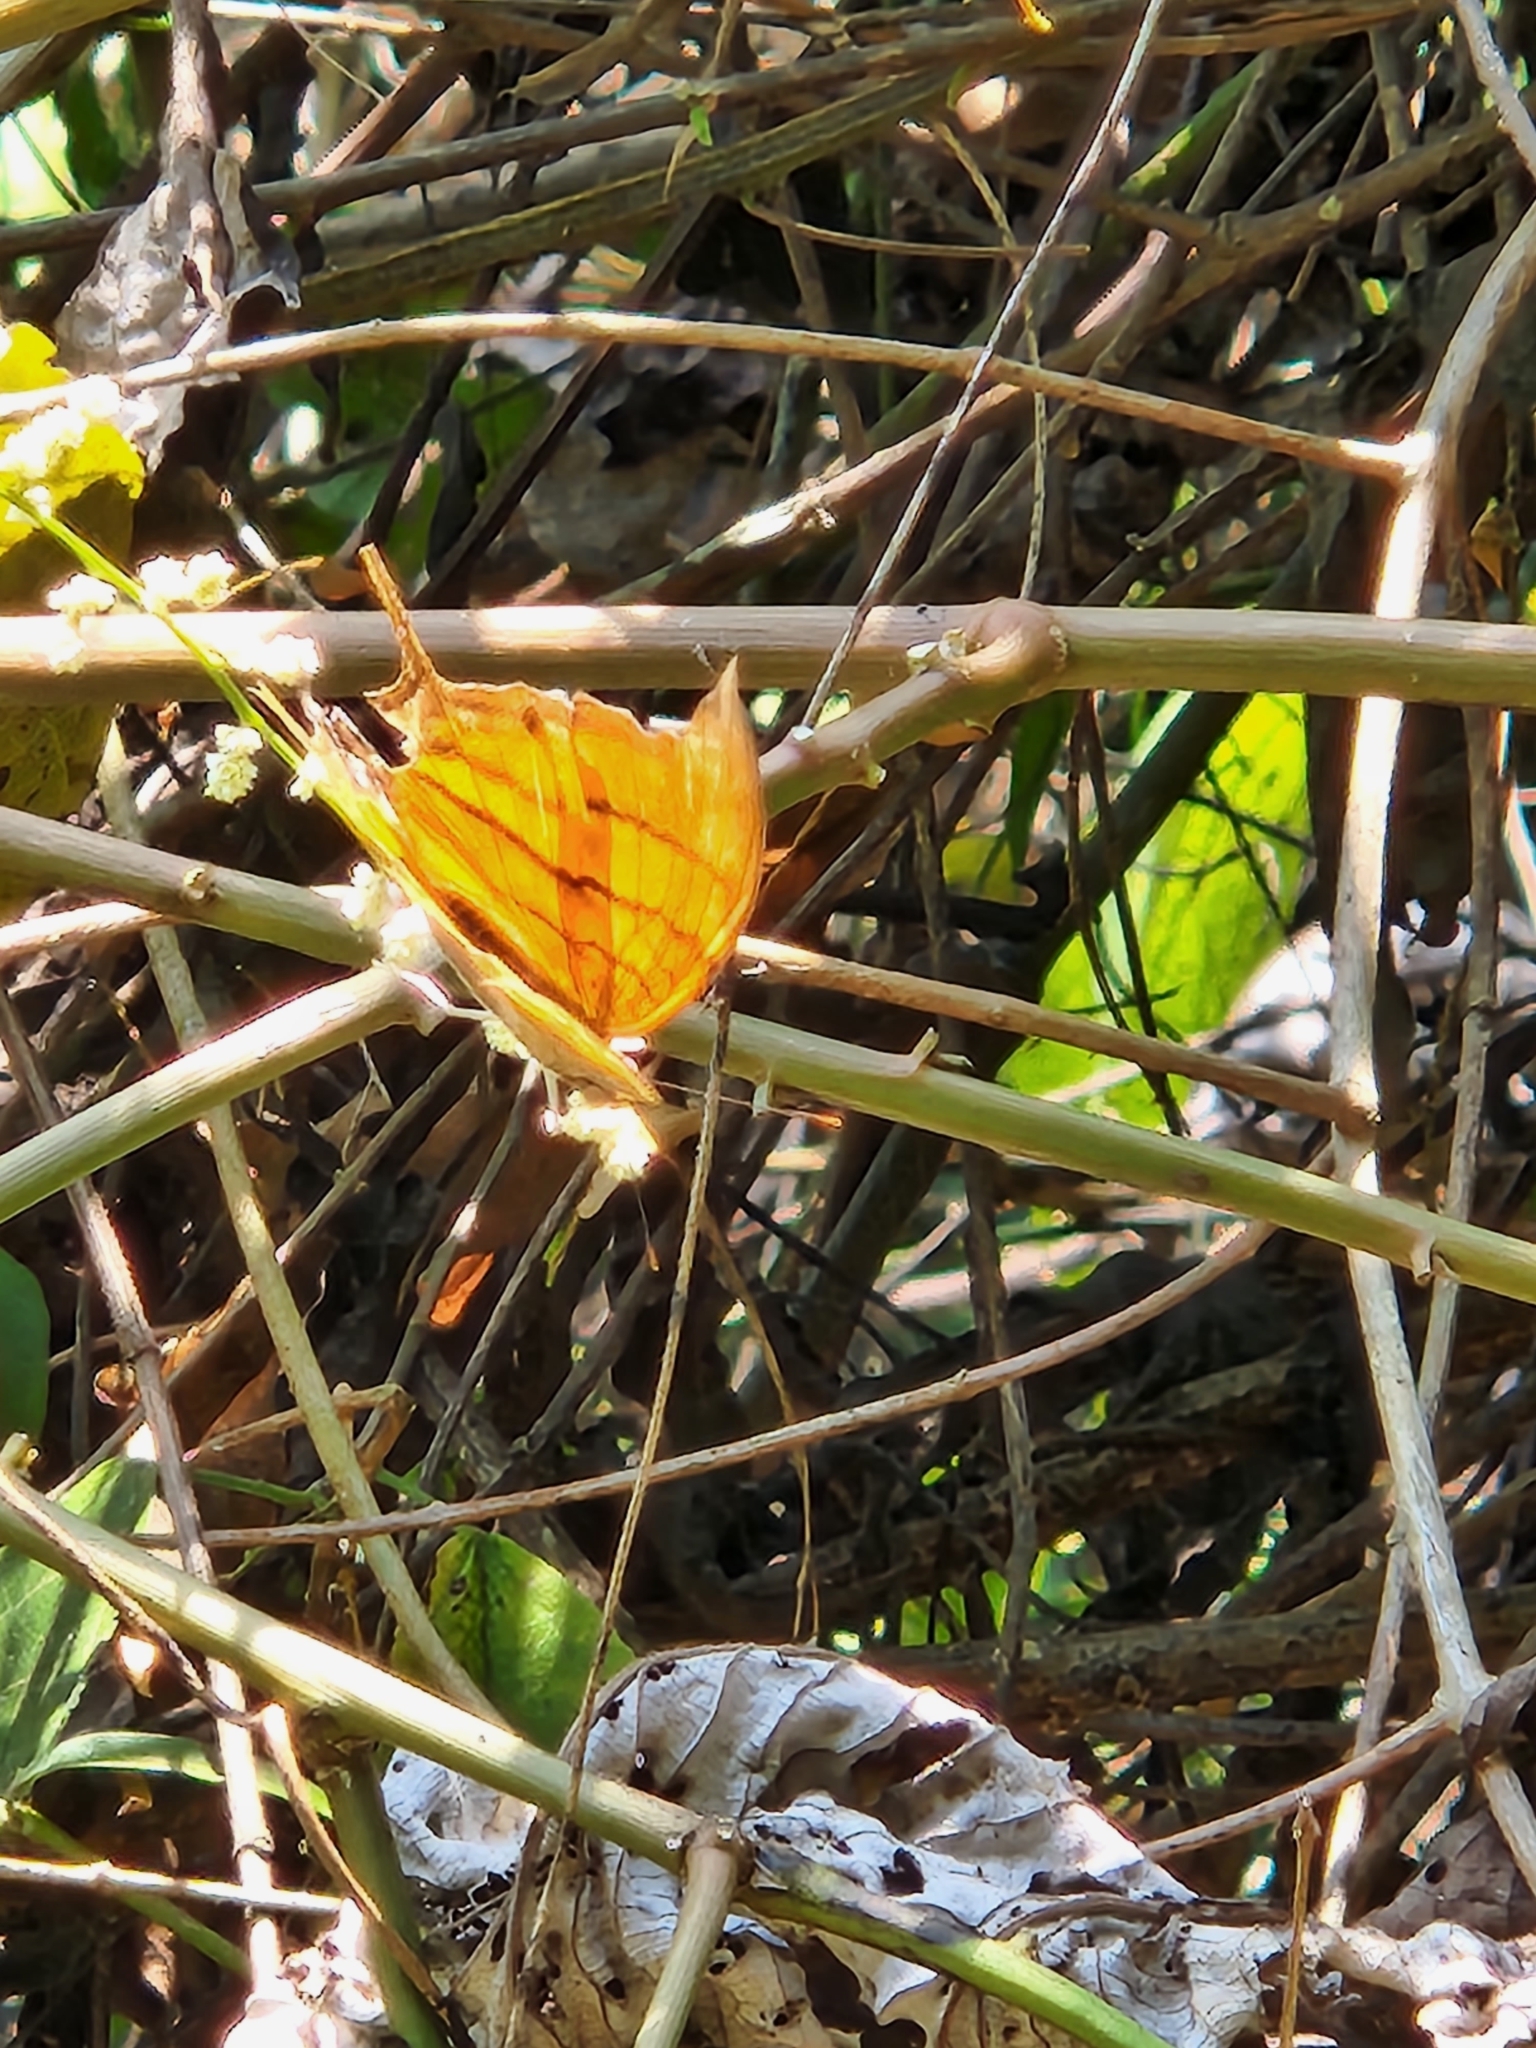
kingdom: Animalia
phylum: Arthropoda
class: Insecta
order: Lepidoptera
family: Nymphalidae
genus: Marpesia
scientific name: Marpesia petreus
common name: Red dagger wing
